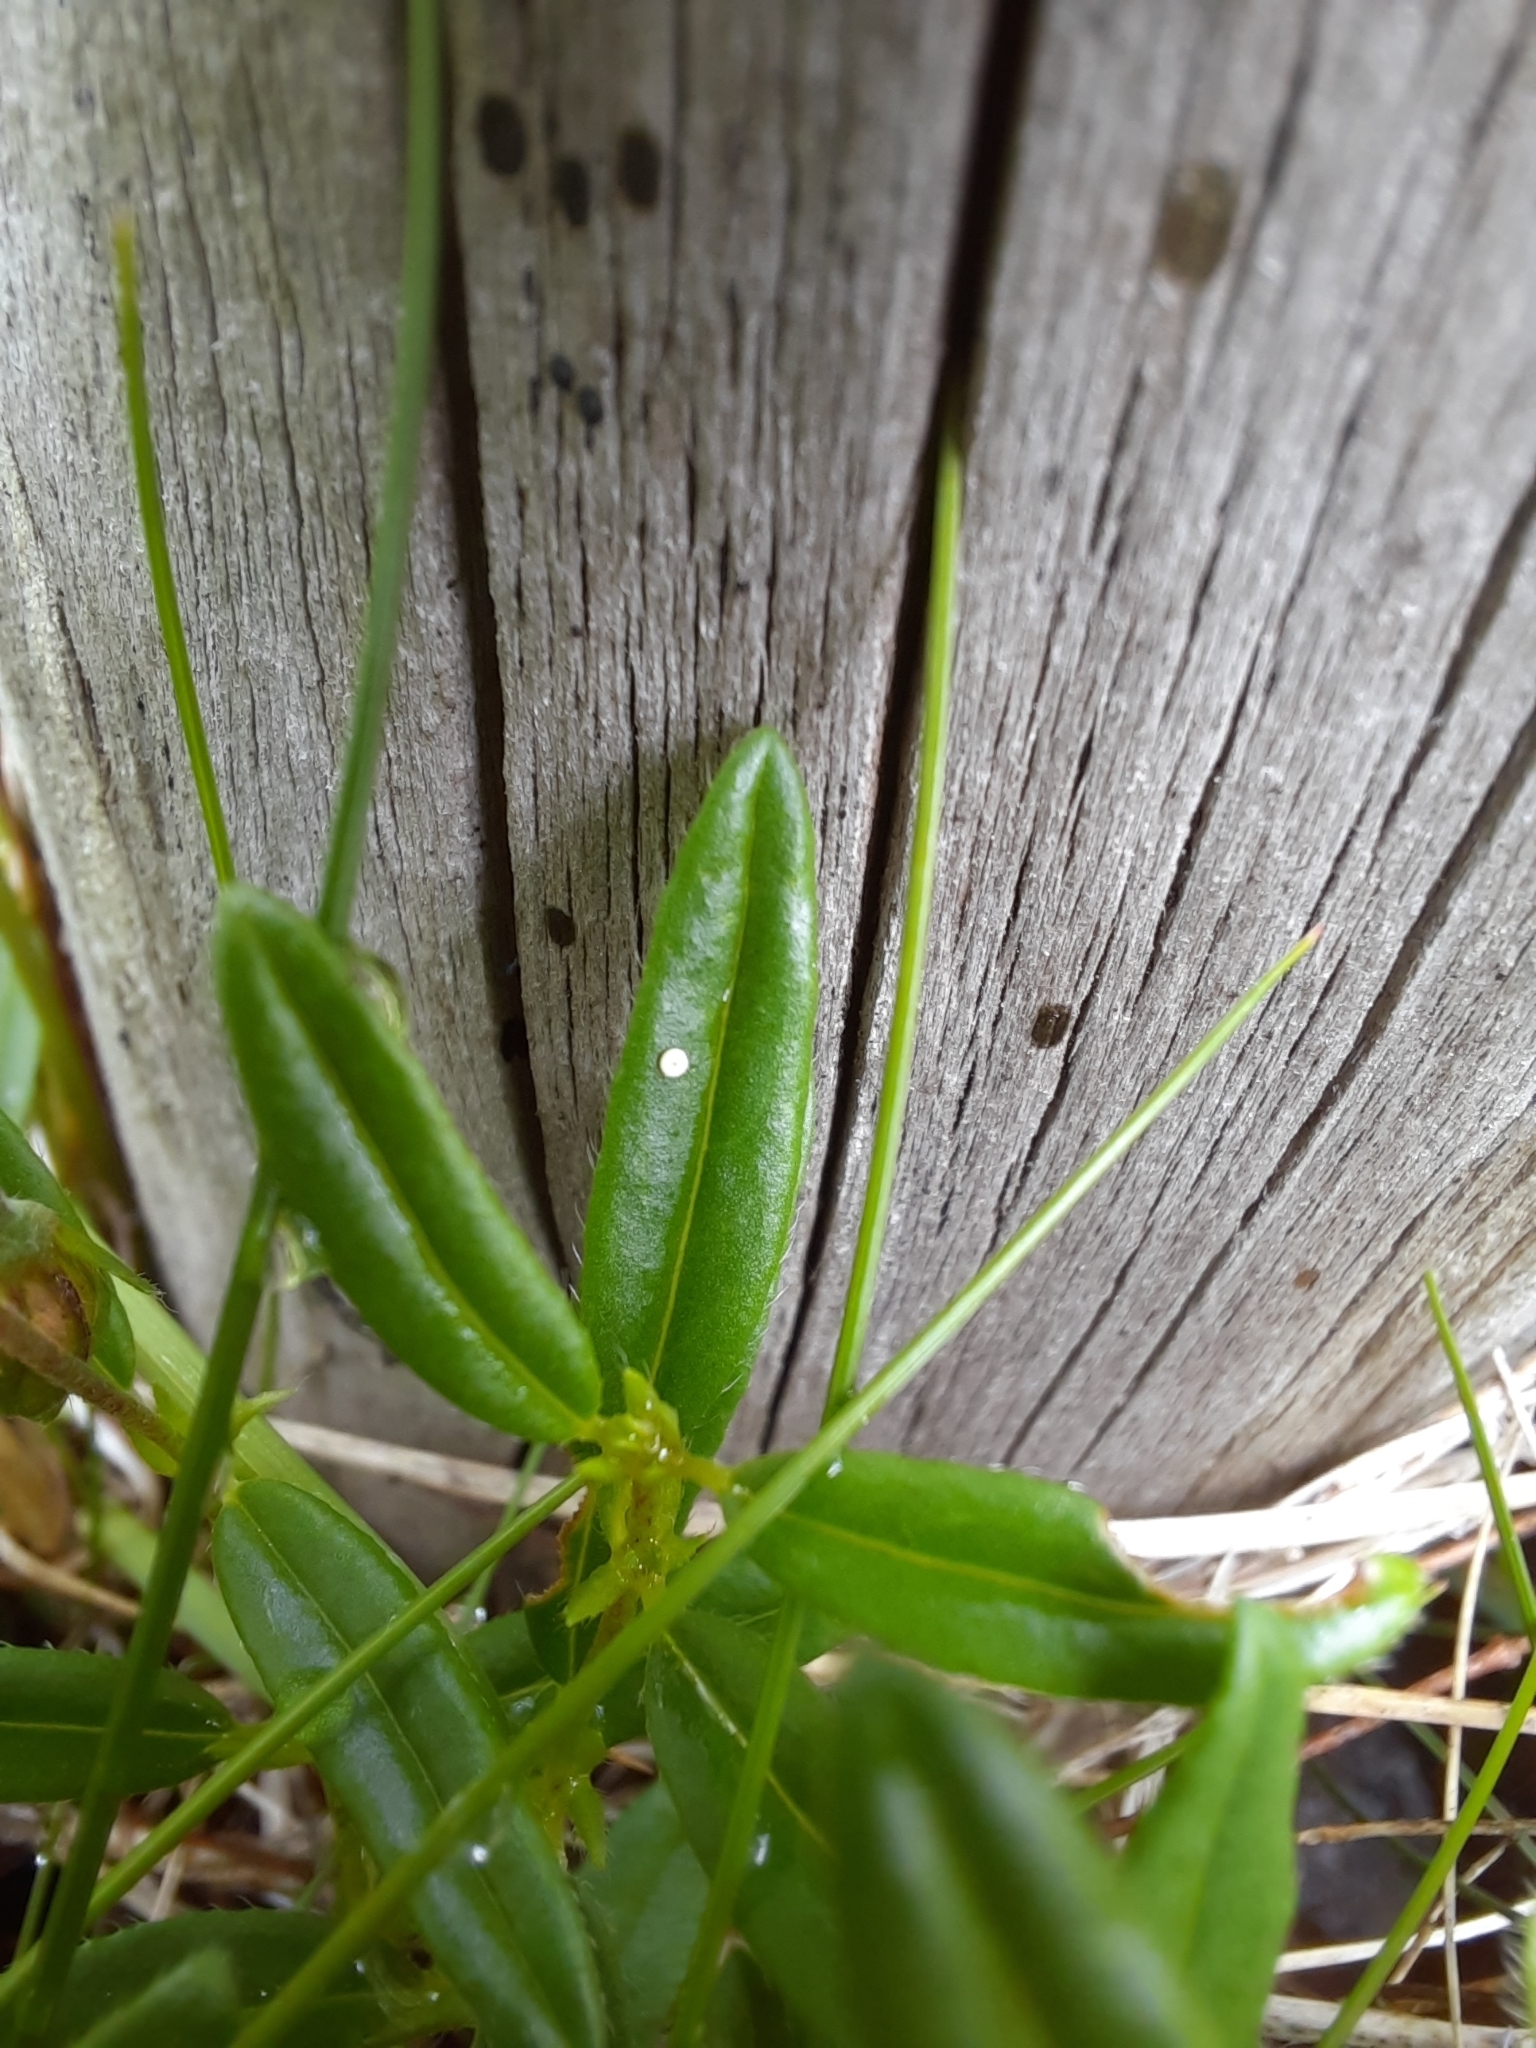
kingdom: Animalia
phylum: Arthropoda
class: Insecta
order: Lepidoptera
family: Lycaenidae
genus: Aricia
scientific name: Aricia artaxerxes
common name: Northern brown argus
